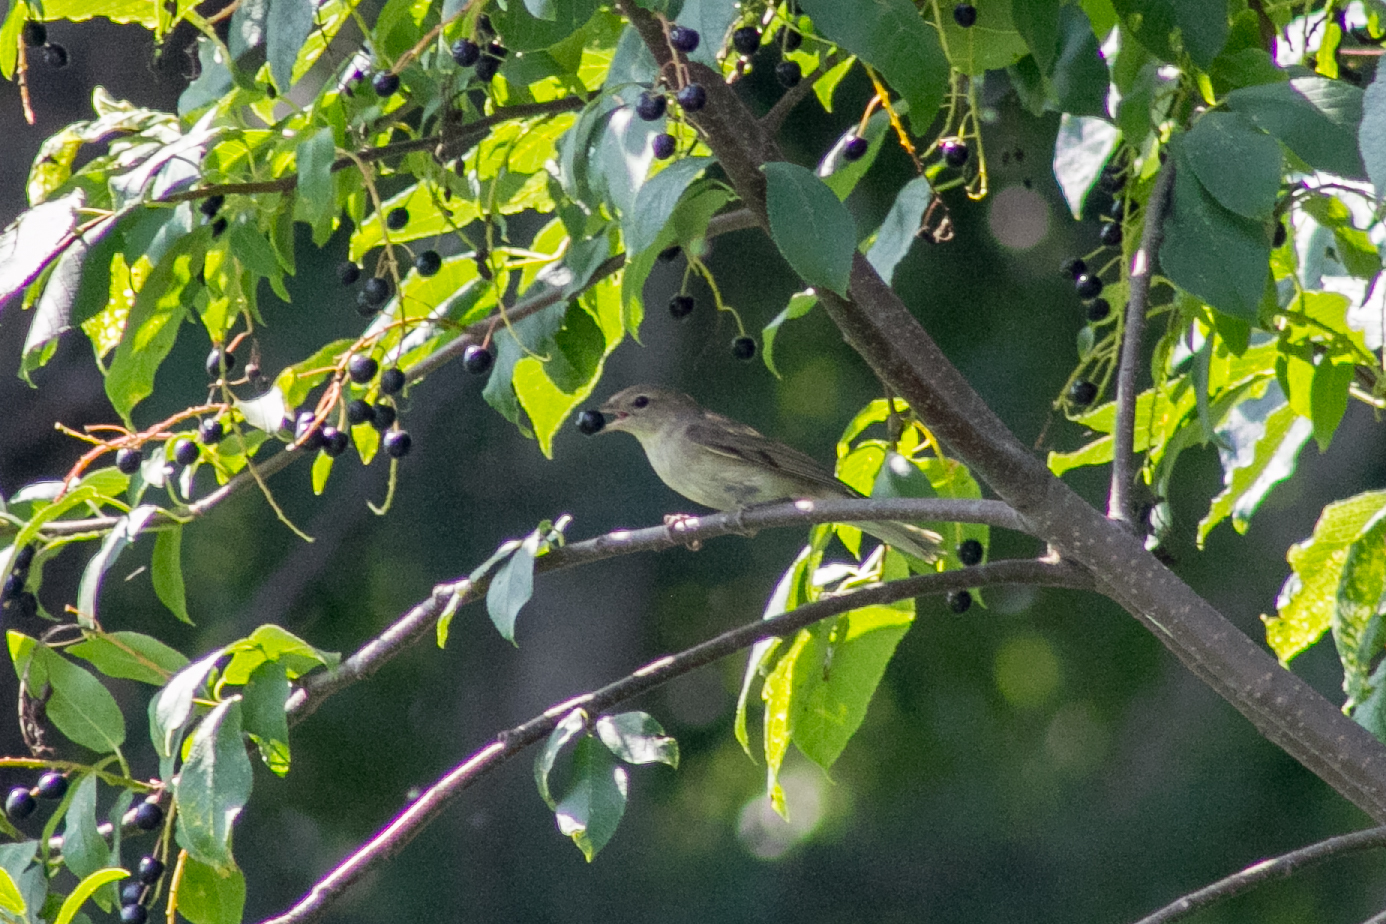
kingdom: Animalia
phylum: Chordata
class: Aves
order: Passeriformes
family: Sylviidae
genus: Sylvia
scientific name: Sylvia borin
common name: Garden warbler
